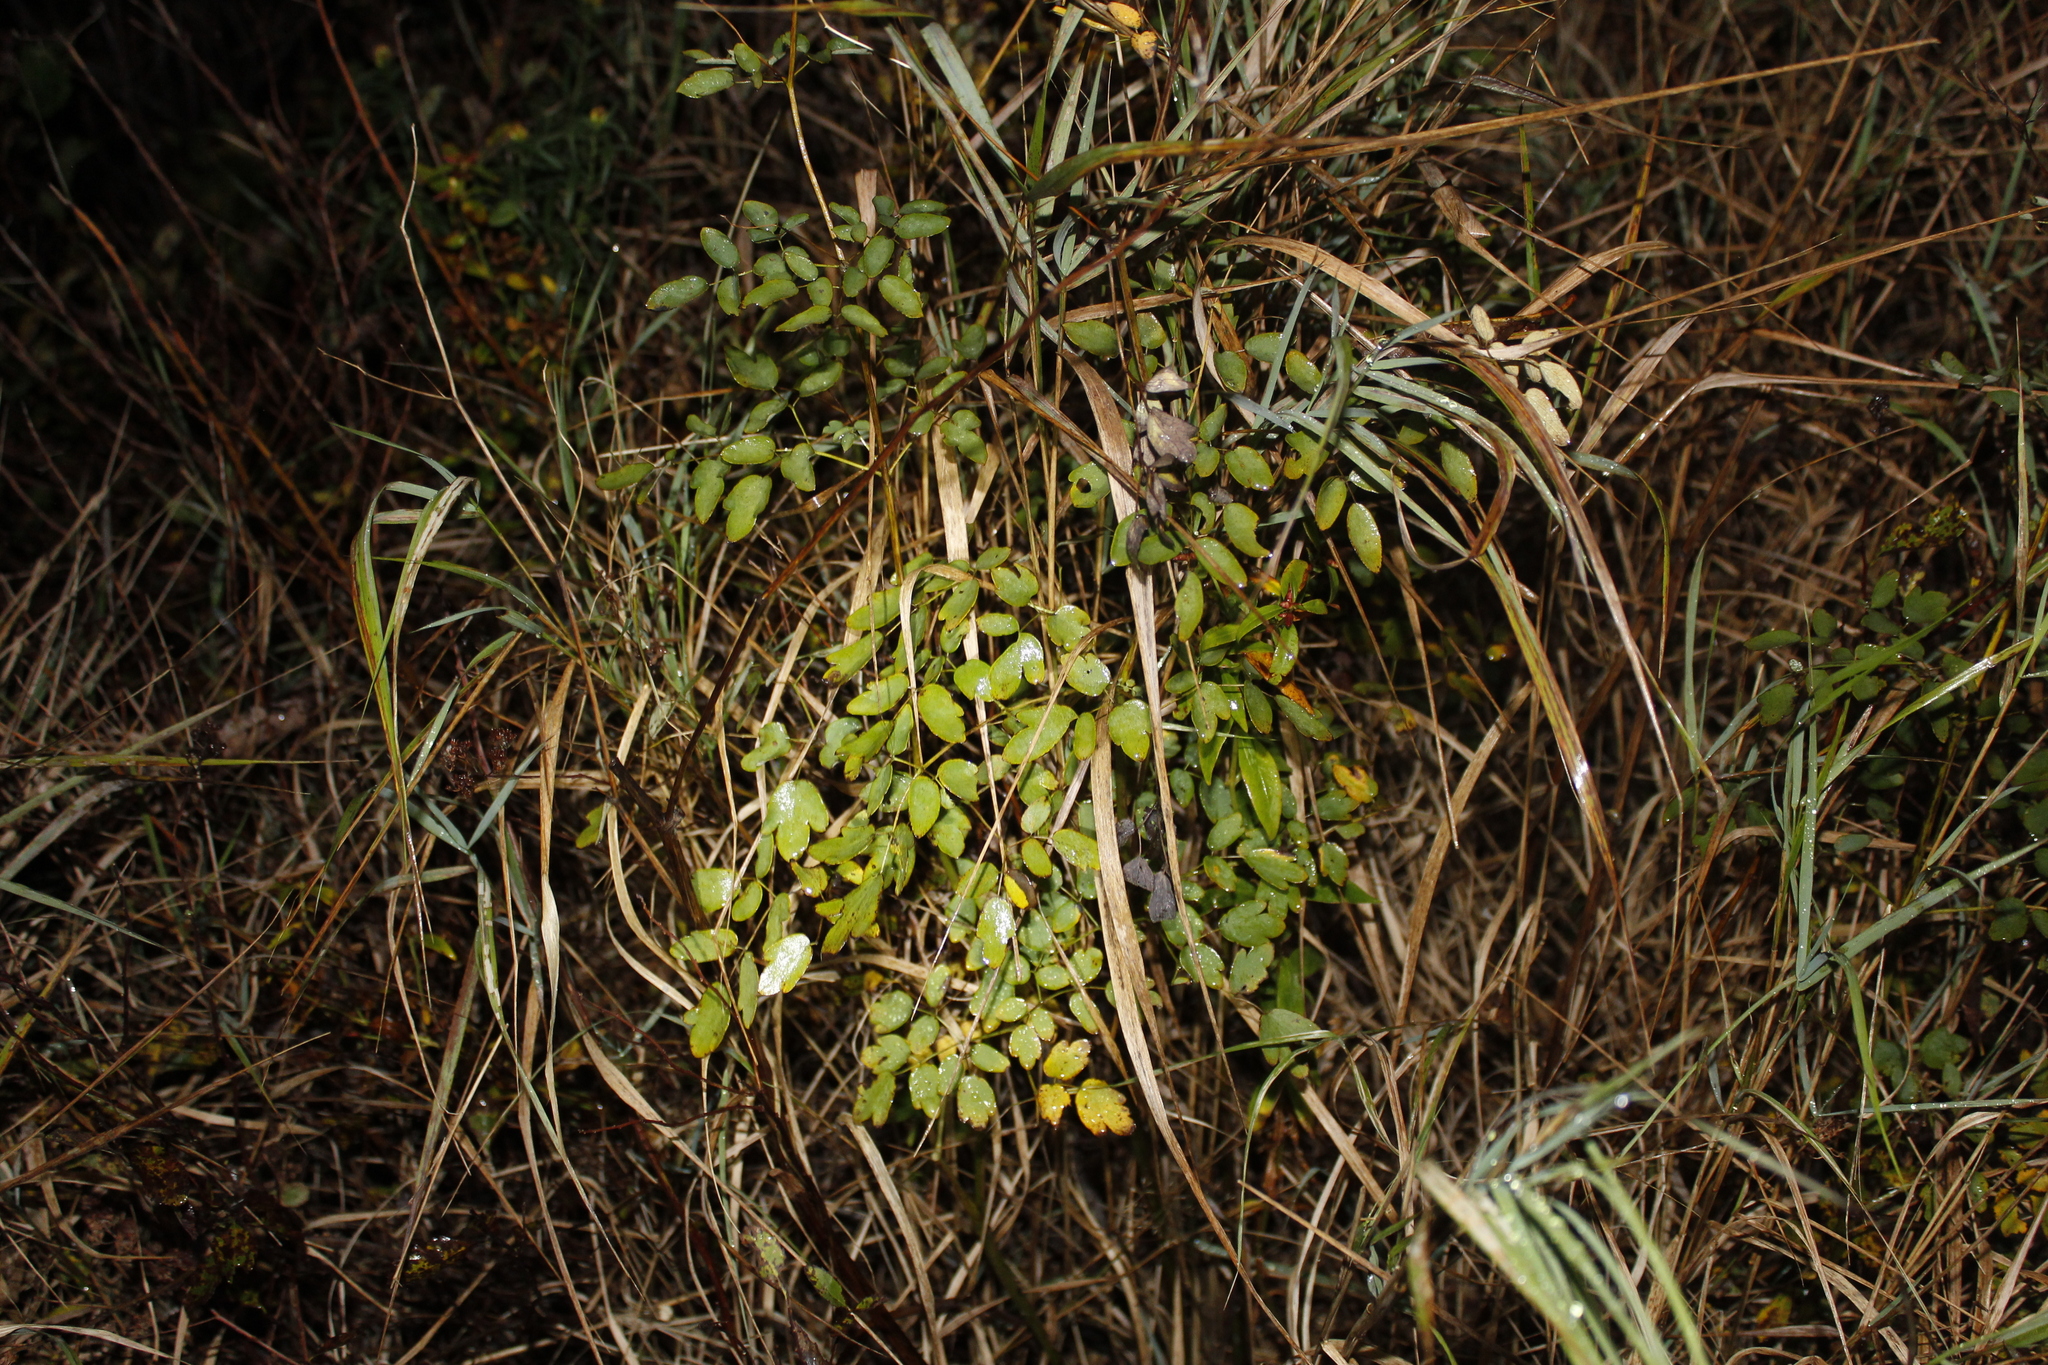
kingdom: Plantae
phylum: Tracheophyta
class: Magnoliopsida
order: Ranunculales
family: Ranunculaceae
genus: Thalictrum
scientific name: Thalictrum pubescens
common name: King-of-the-meadow
